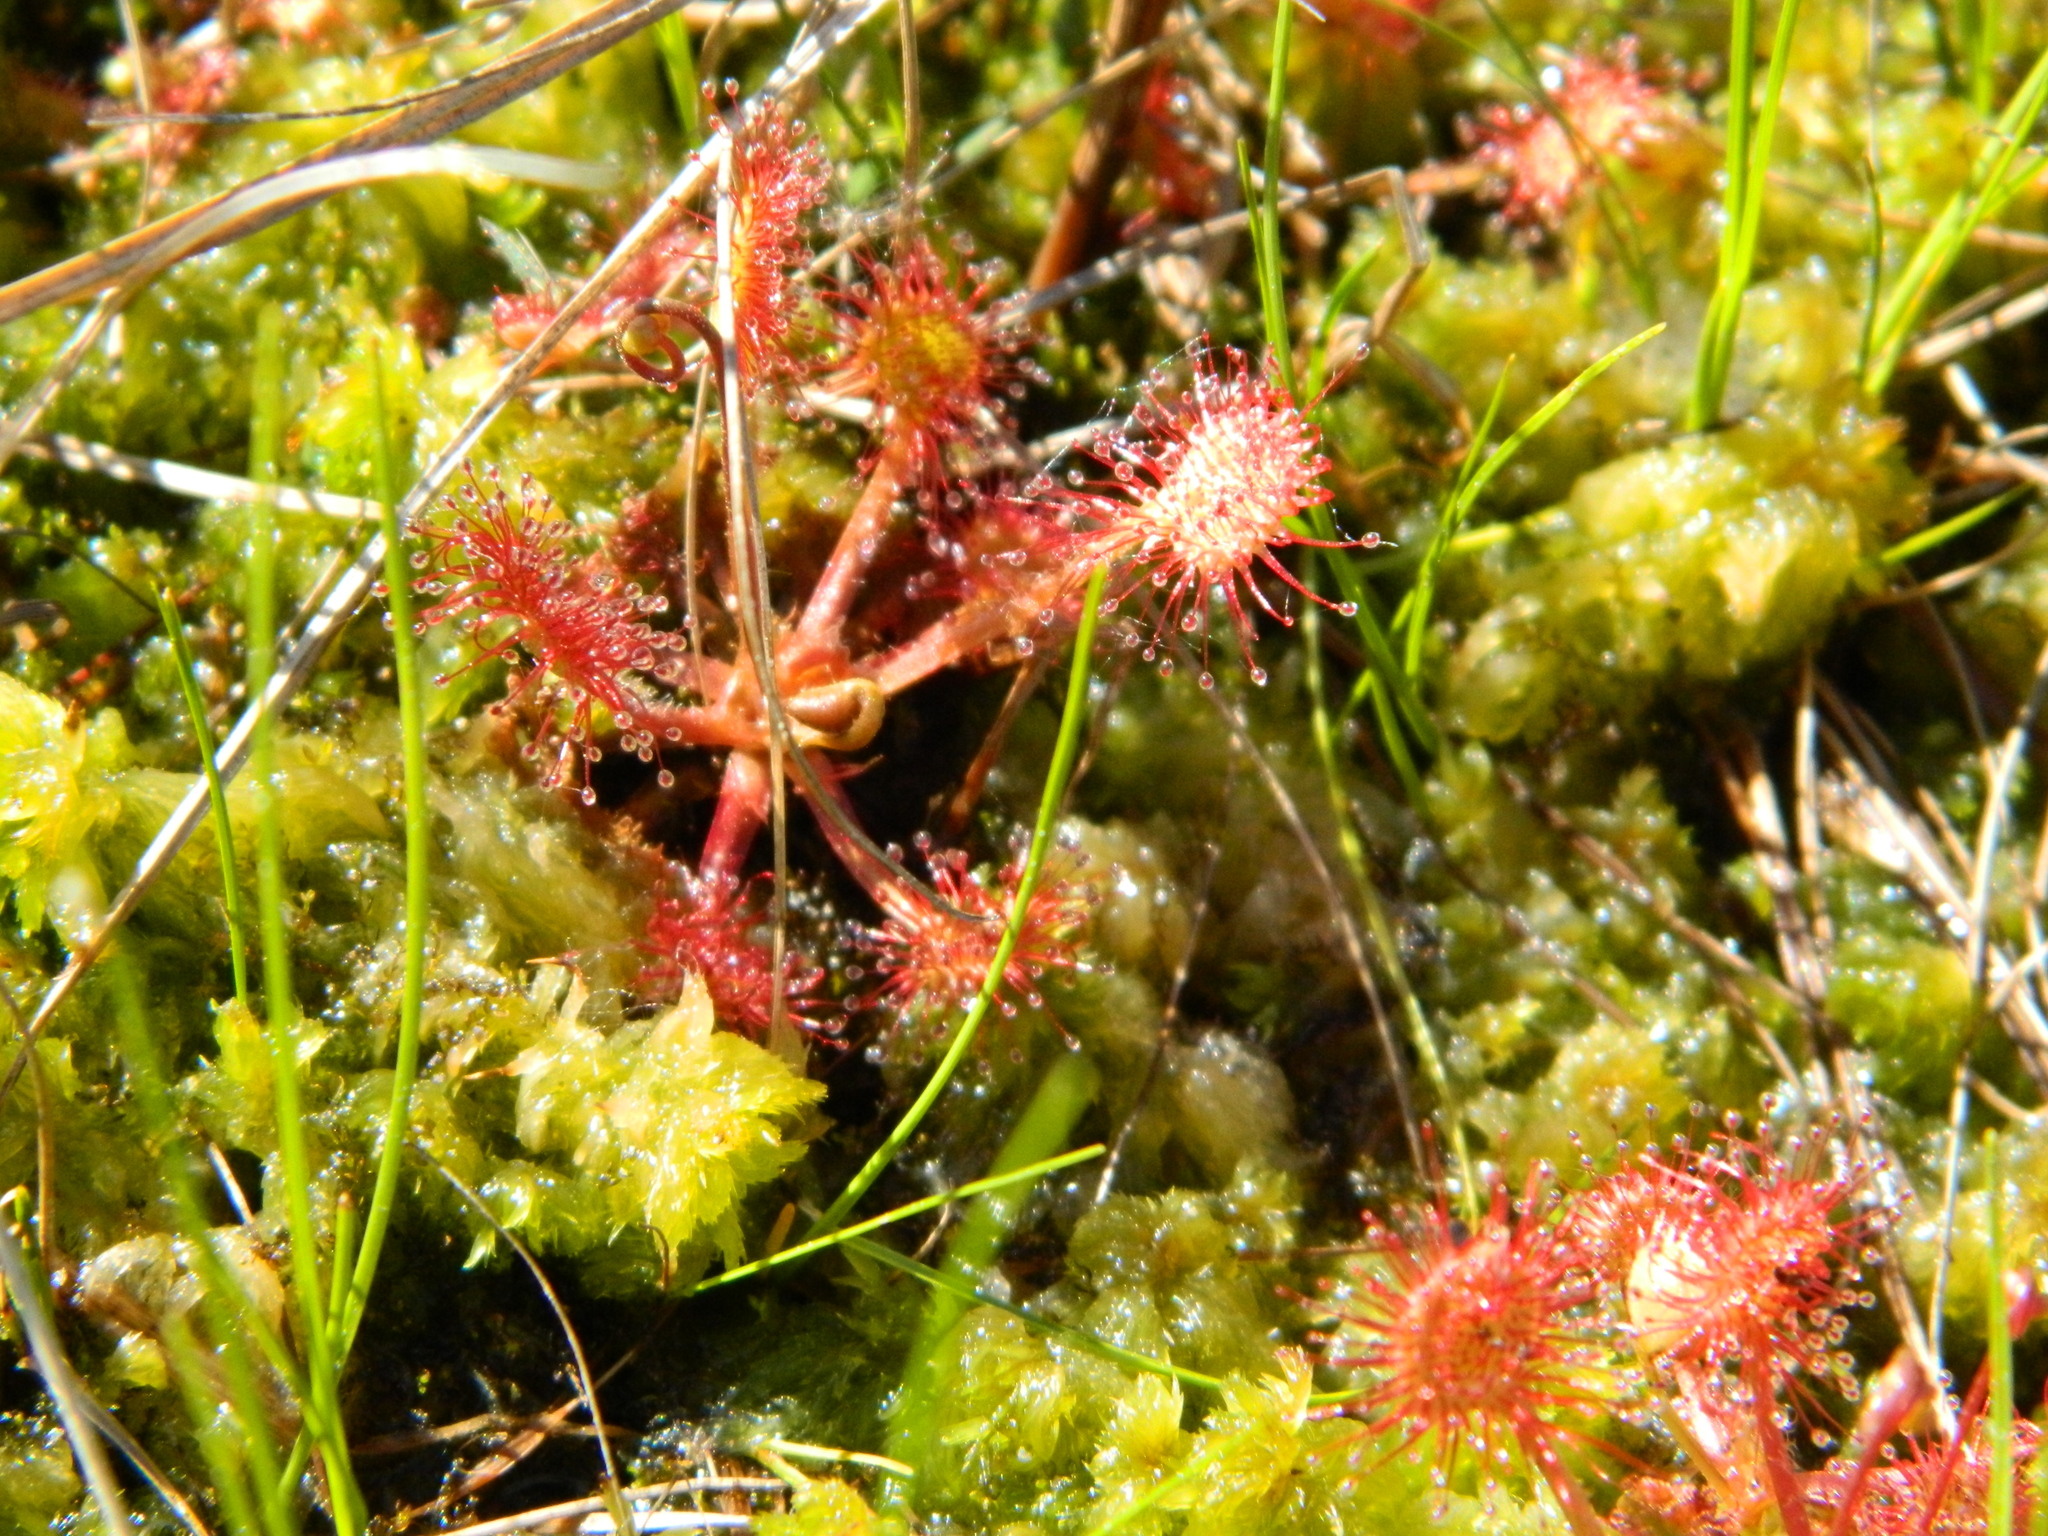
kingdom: Plantae
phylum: Tracheophyta
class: Magnoliopsida
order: Caryophyllales
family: Droseraceae
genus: Drosera
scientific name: Drosera rotundifolia
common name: Round-leaved sundew
